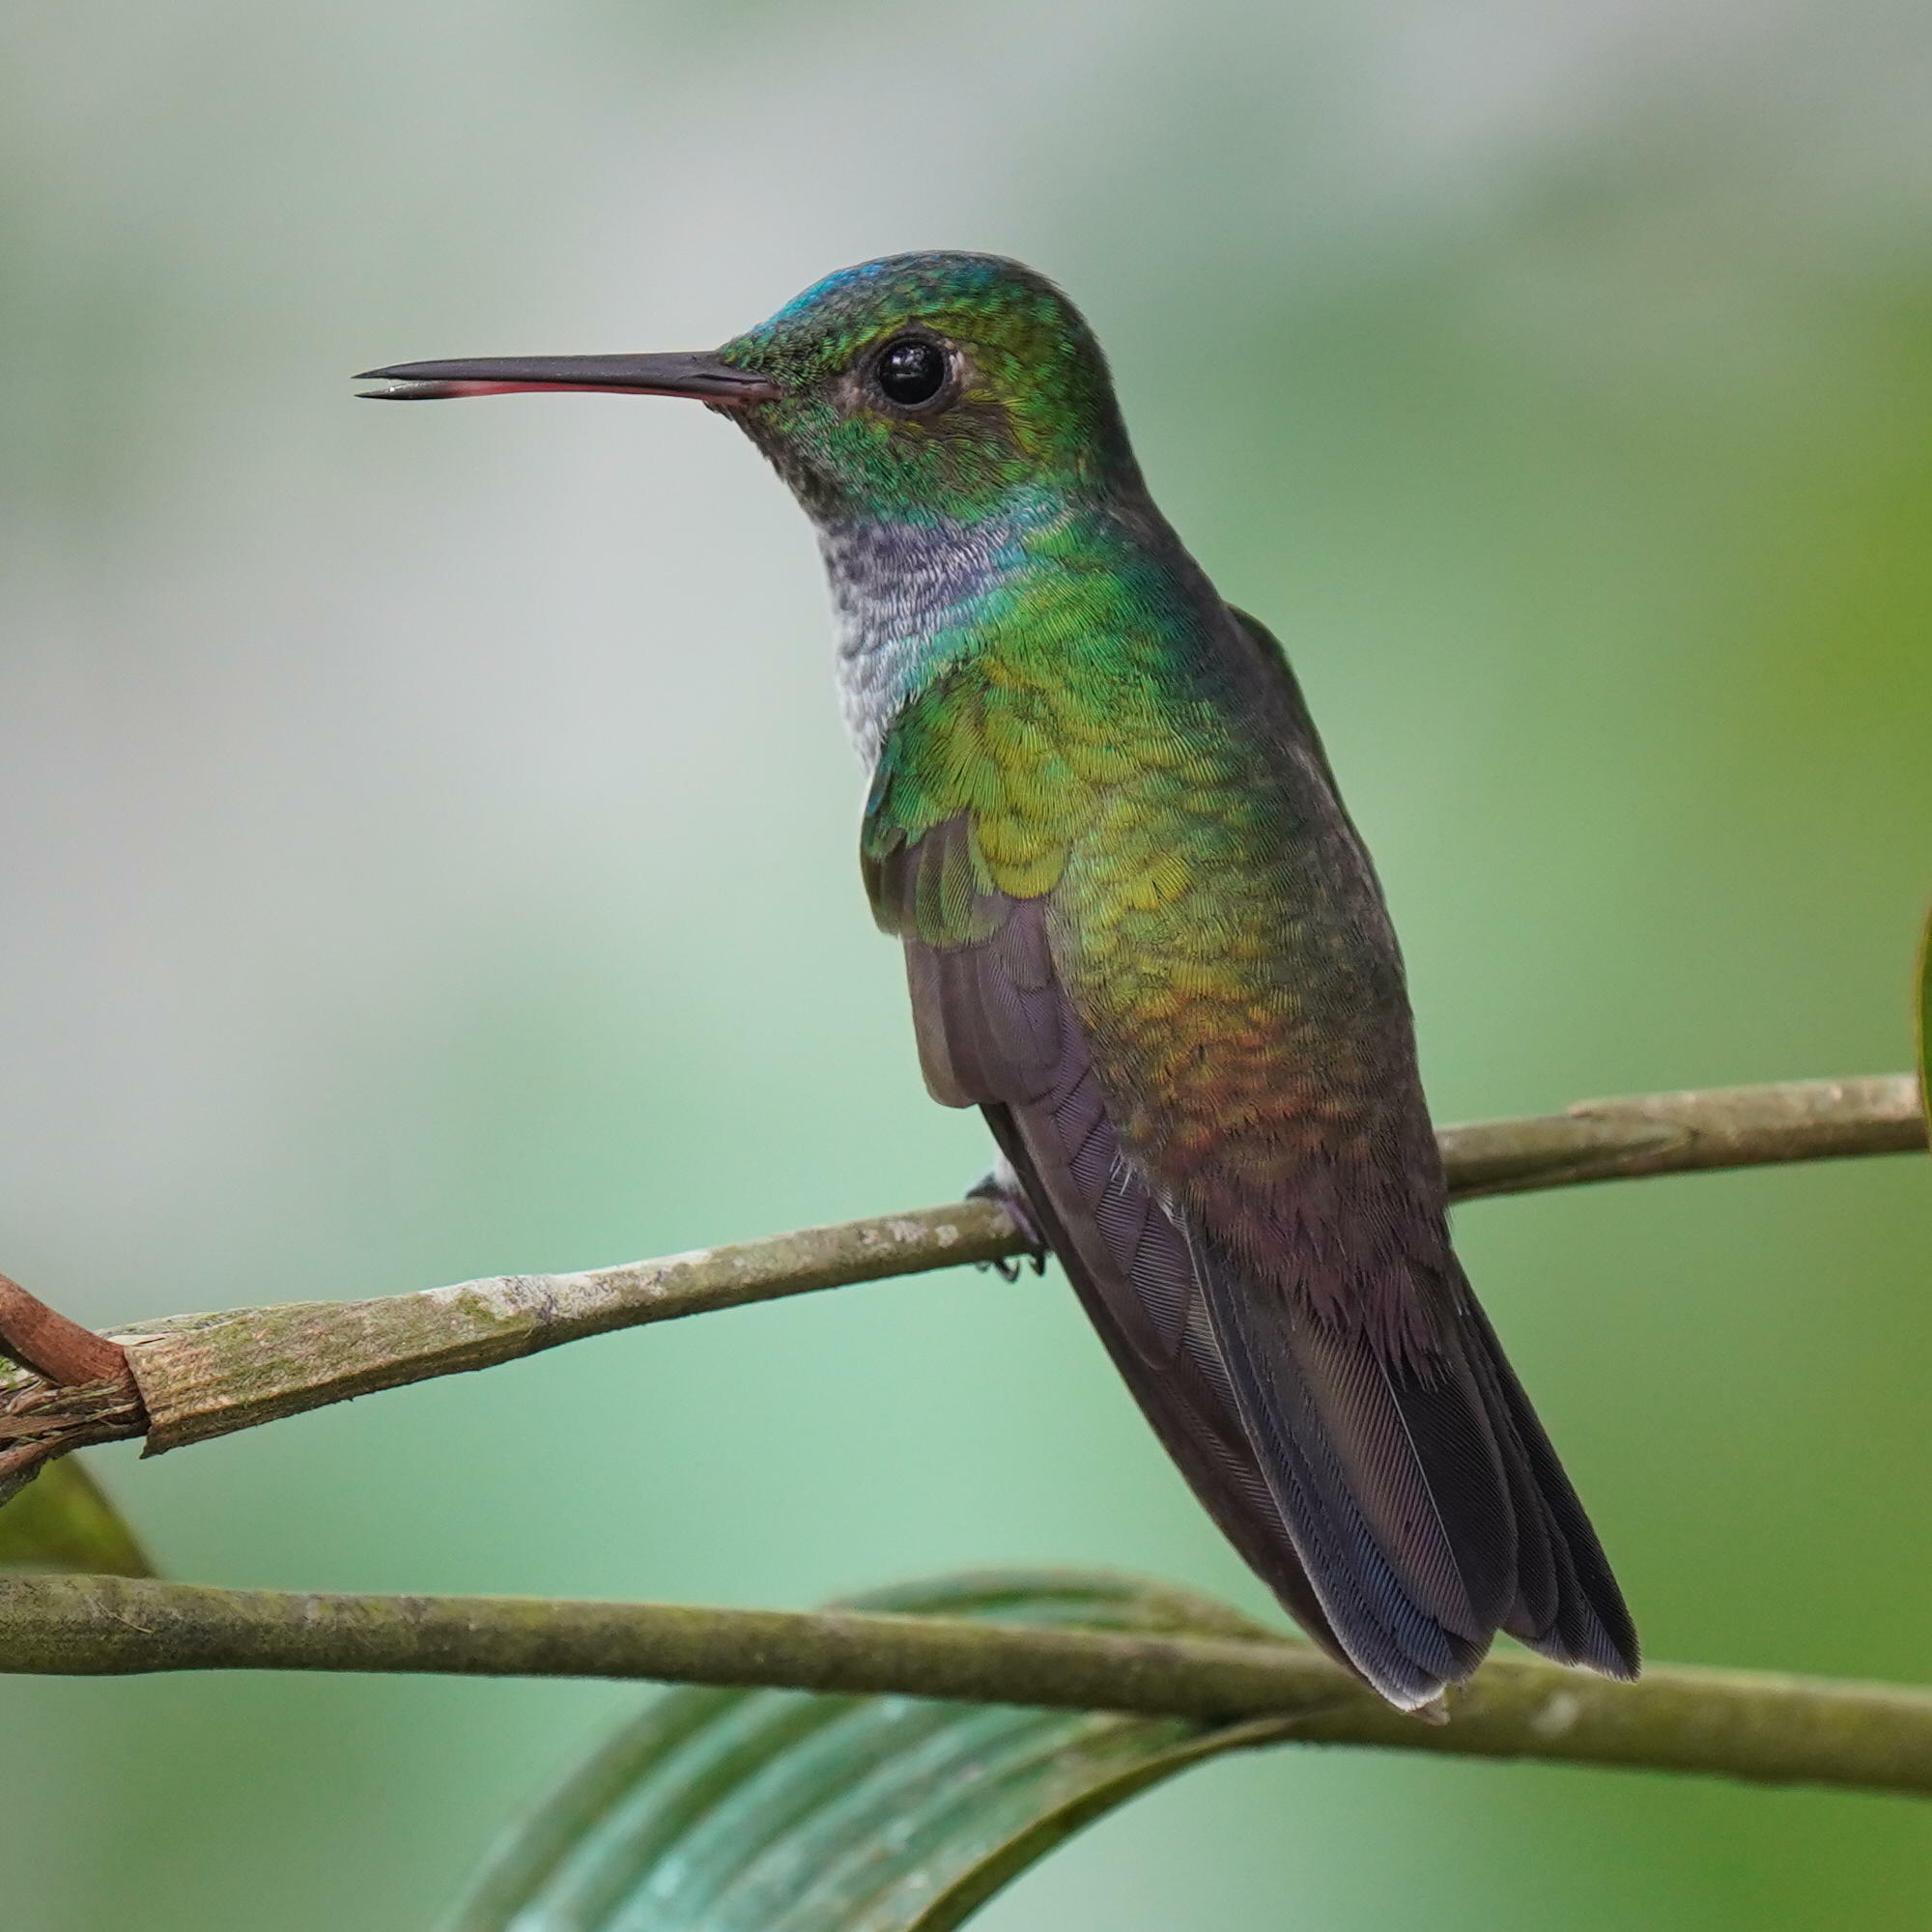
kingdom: Animalia
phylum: Chordata
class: Aves
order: Apodiformes
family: Trochilidae
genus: Polyerata
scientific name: Polyerata amabilis
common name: Blue-chested hummingbird
